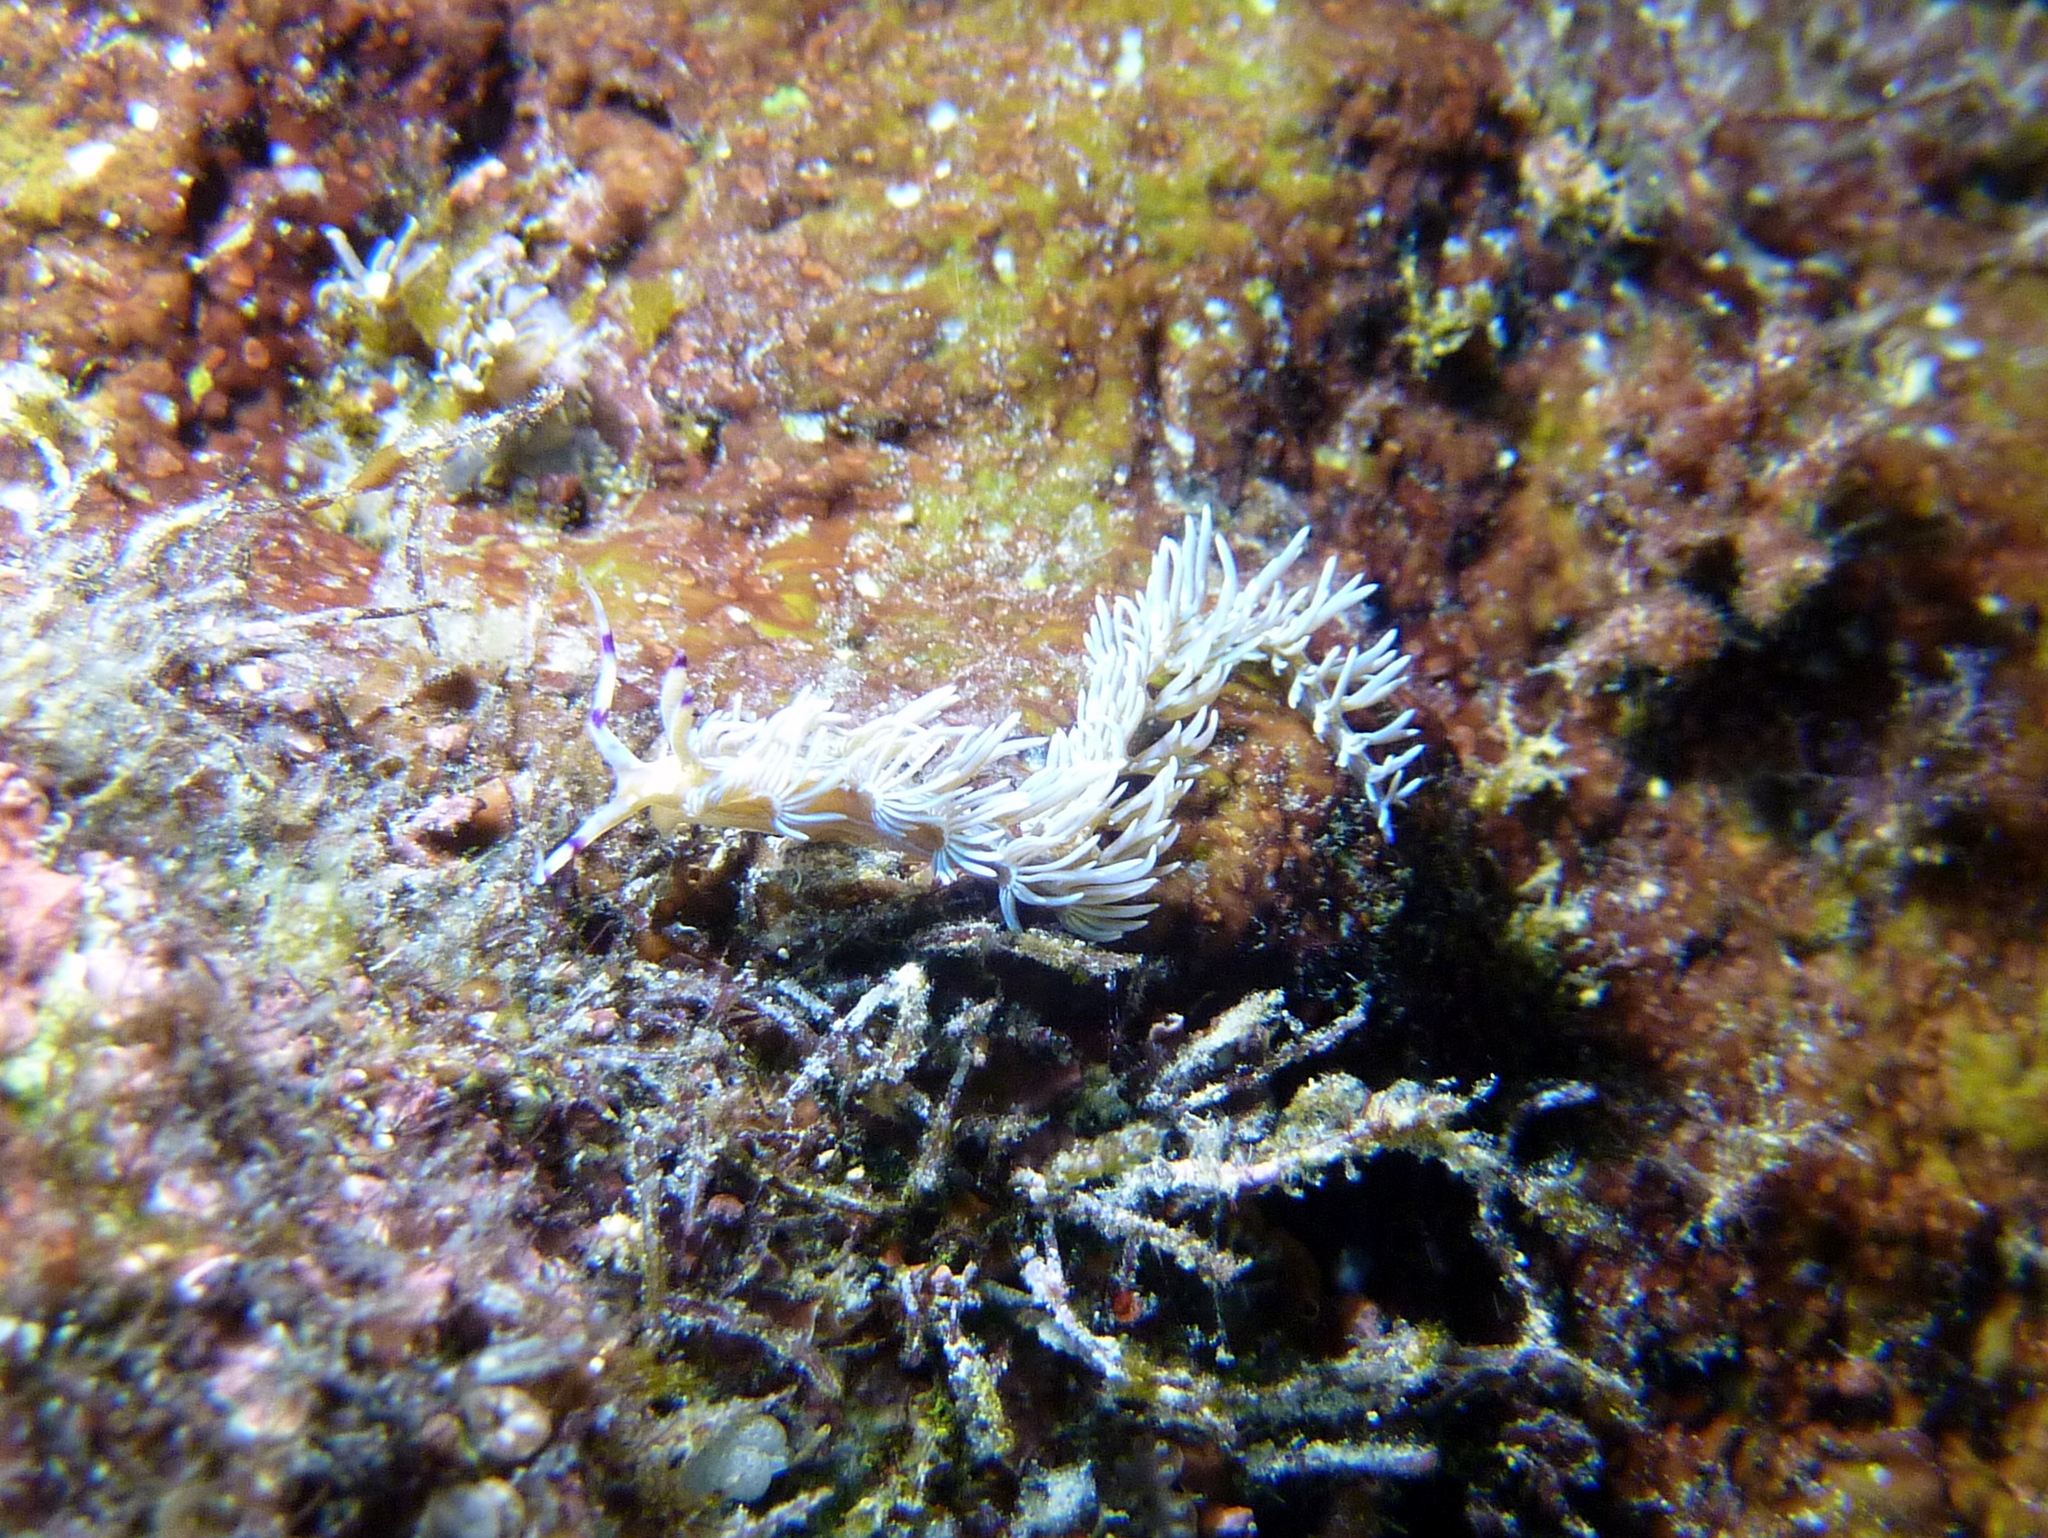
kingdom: Animalia
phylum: Mollusca
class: Gastropoda
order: Nudibranchia
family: Facelinidae
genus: Pteraeolidia
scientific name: Pteraeolidia semperi
